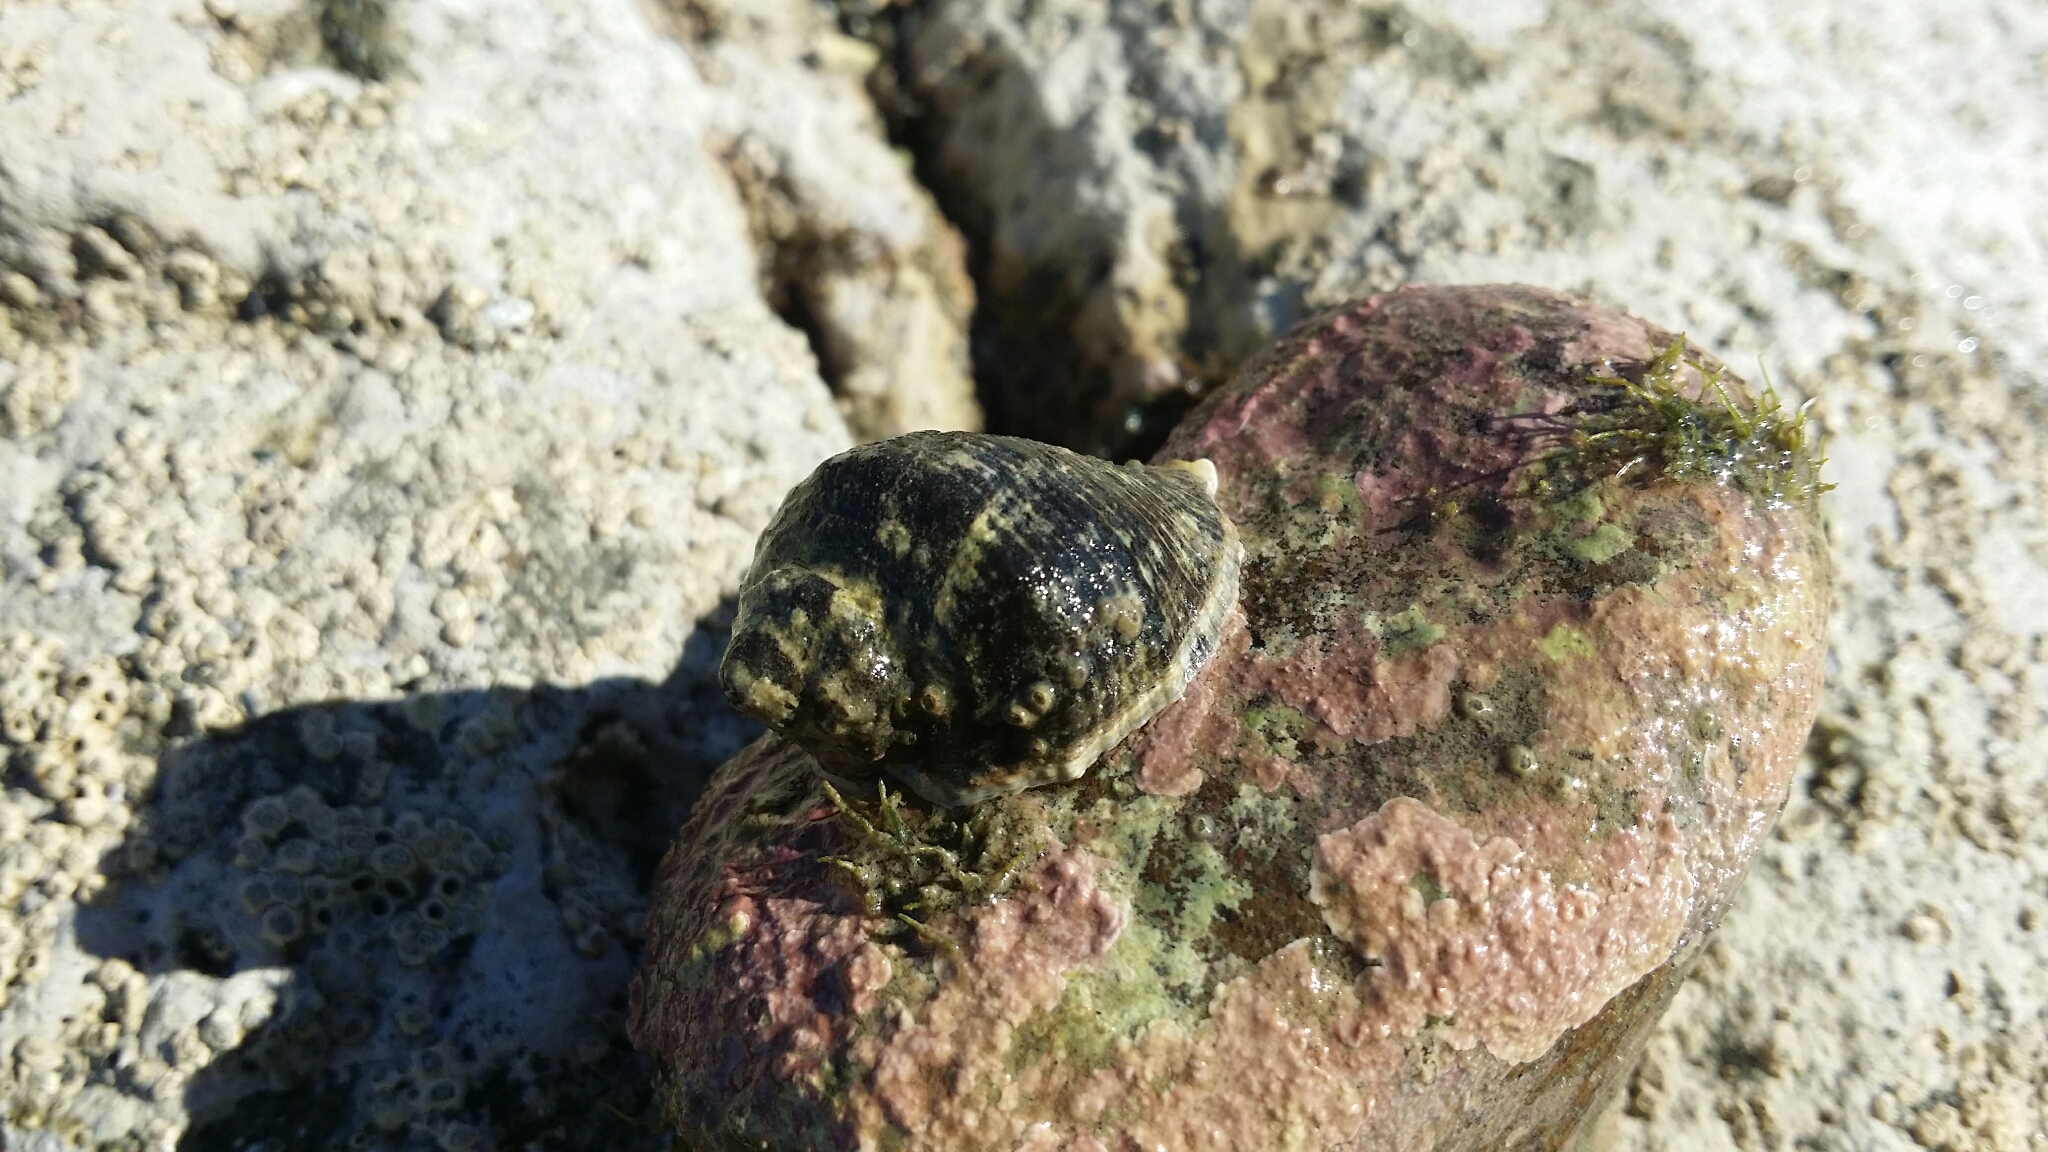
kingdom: Animalia
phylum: Mollusca
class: Gastropoda
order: Neogastropoda
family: Muricidae
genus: Haustrum
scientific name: Haustrum haustorium
